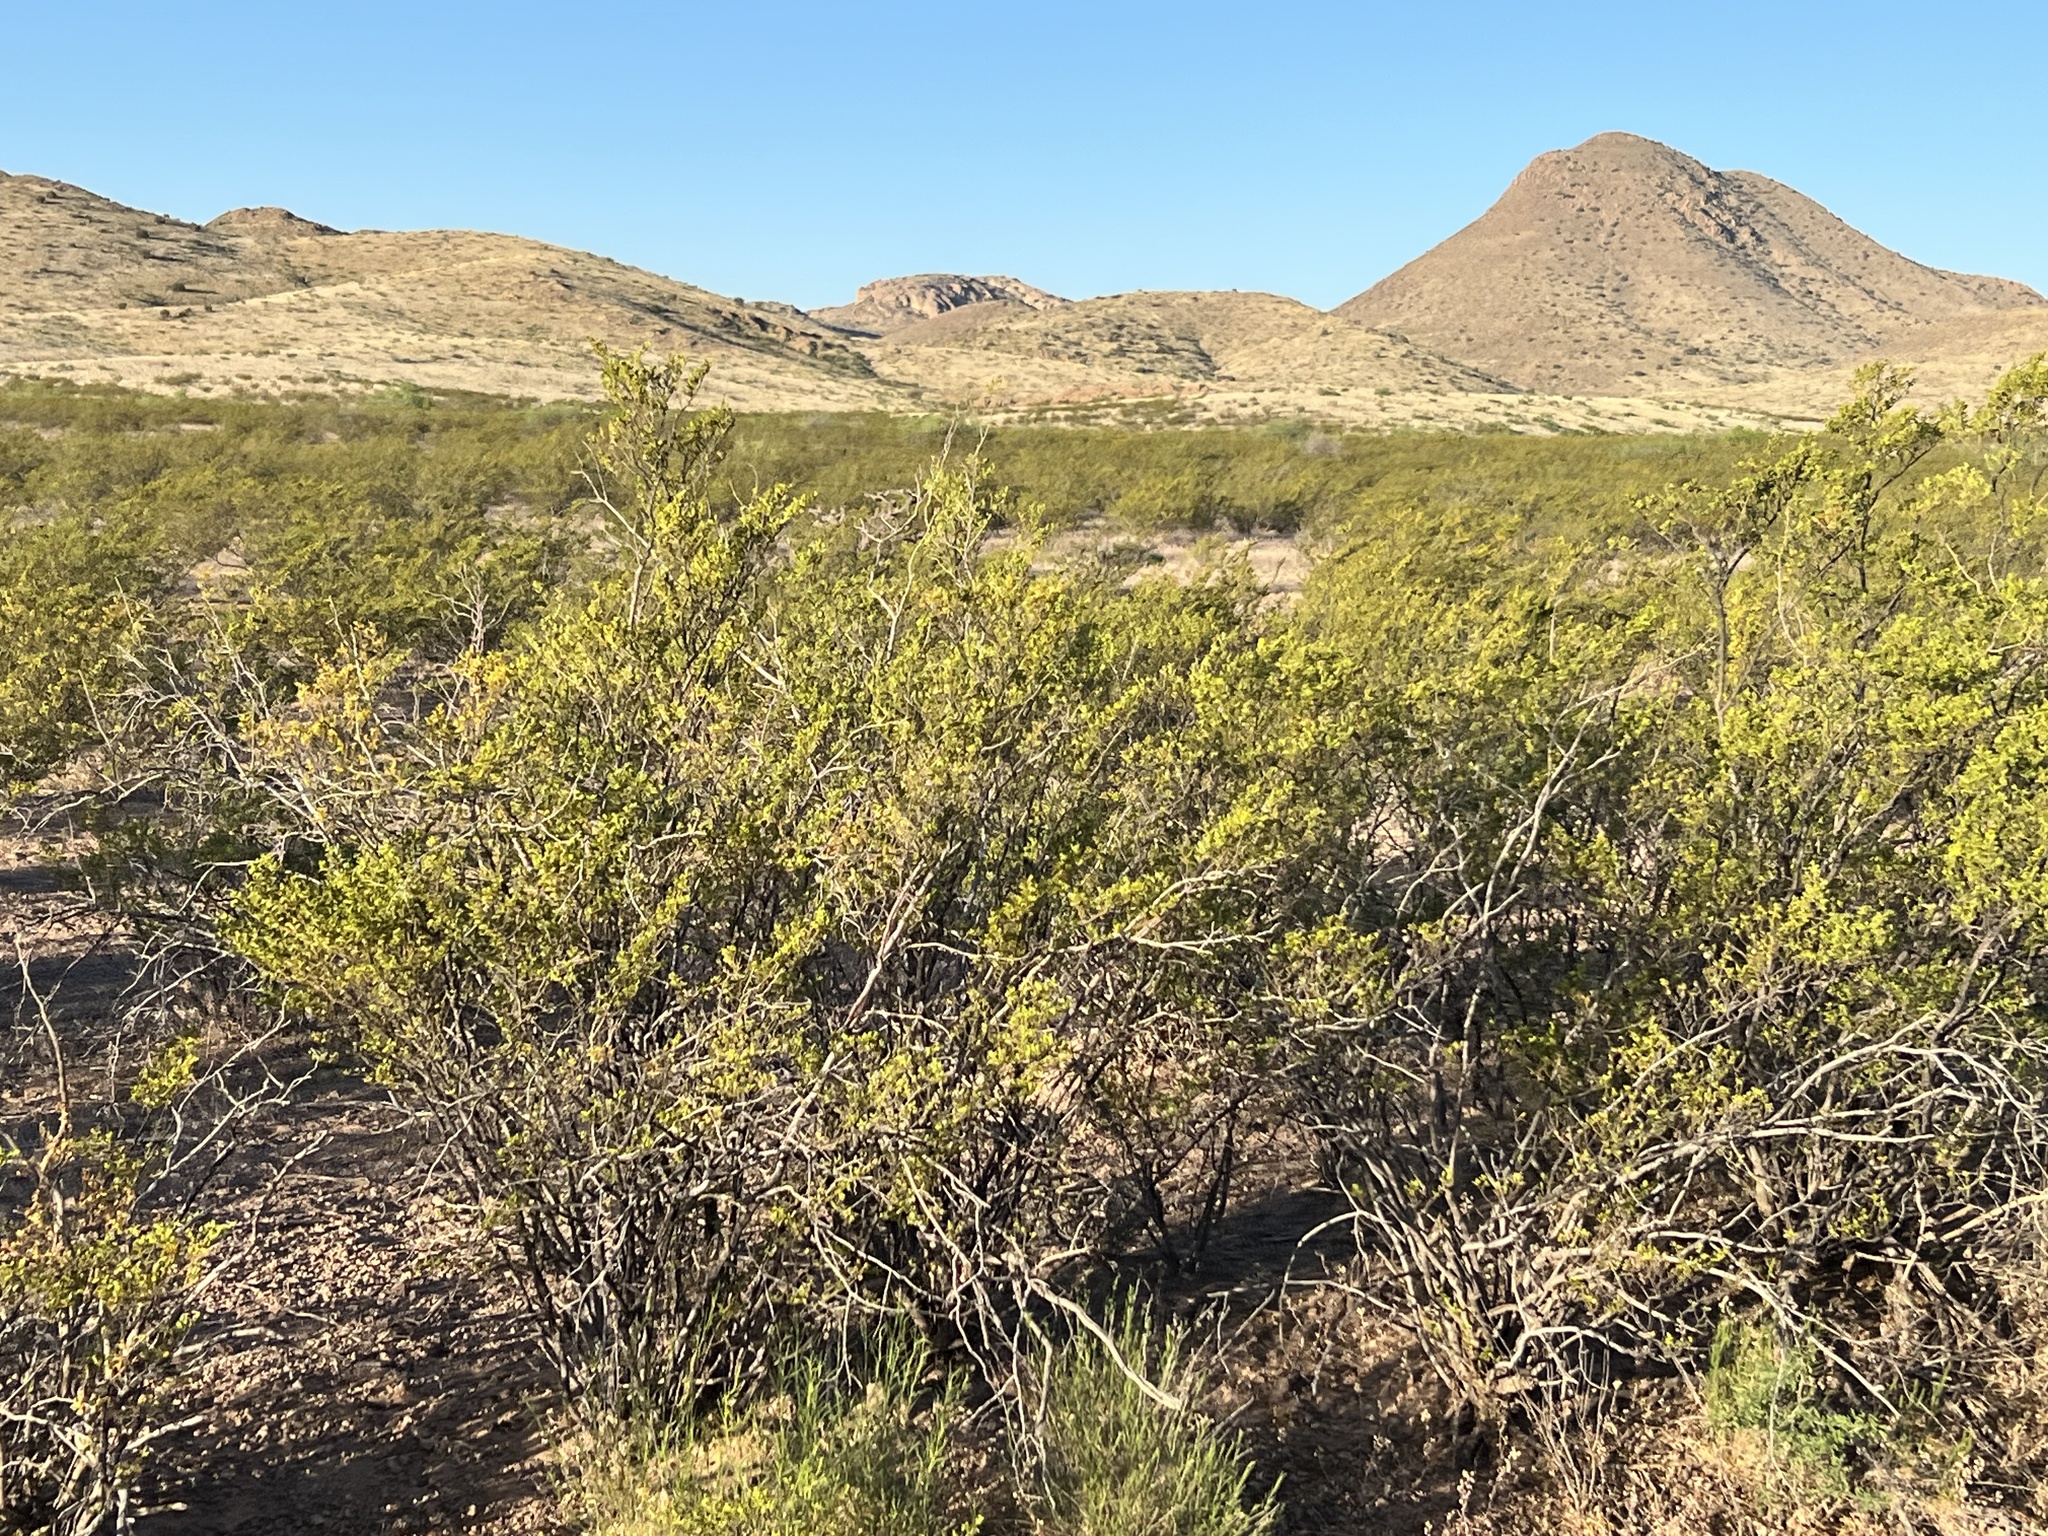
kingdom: Plantae
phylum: Tracheophyta
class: Magnoliopsida
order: Zygophyllales
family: Zygophyllaceae
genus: Larrea
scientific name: Larrea tridentata
